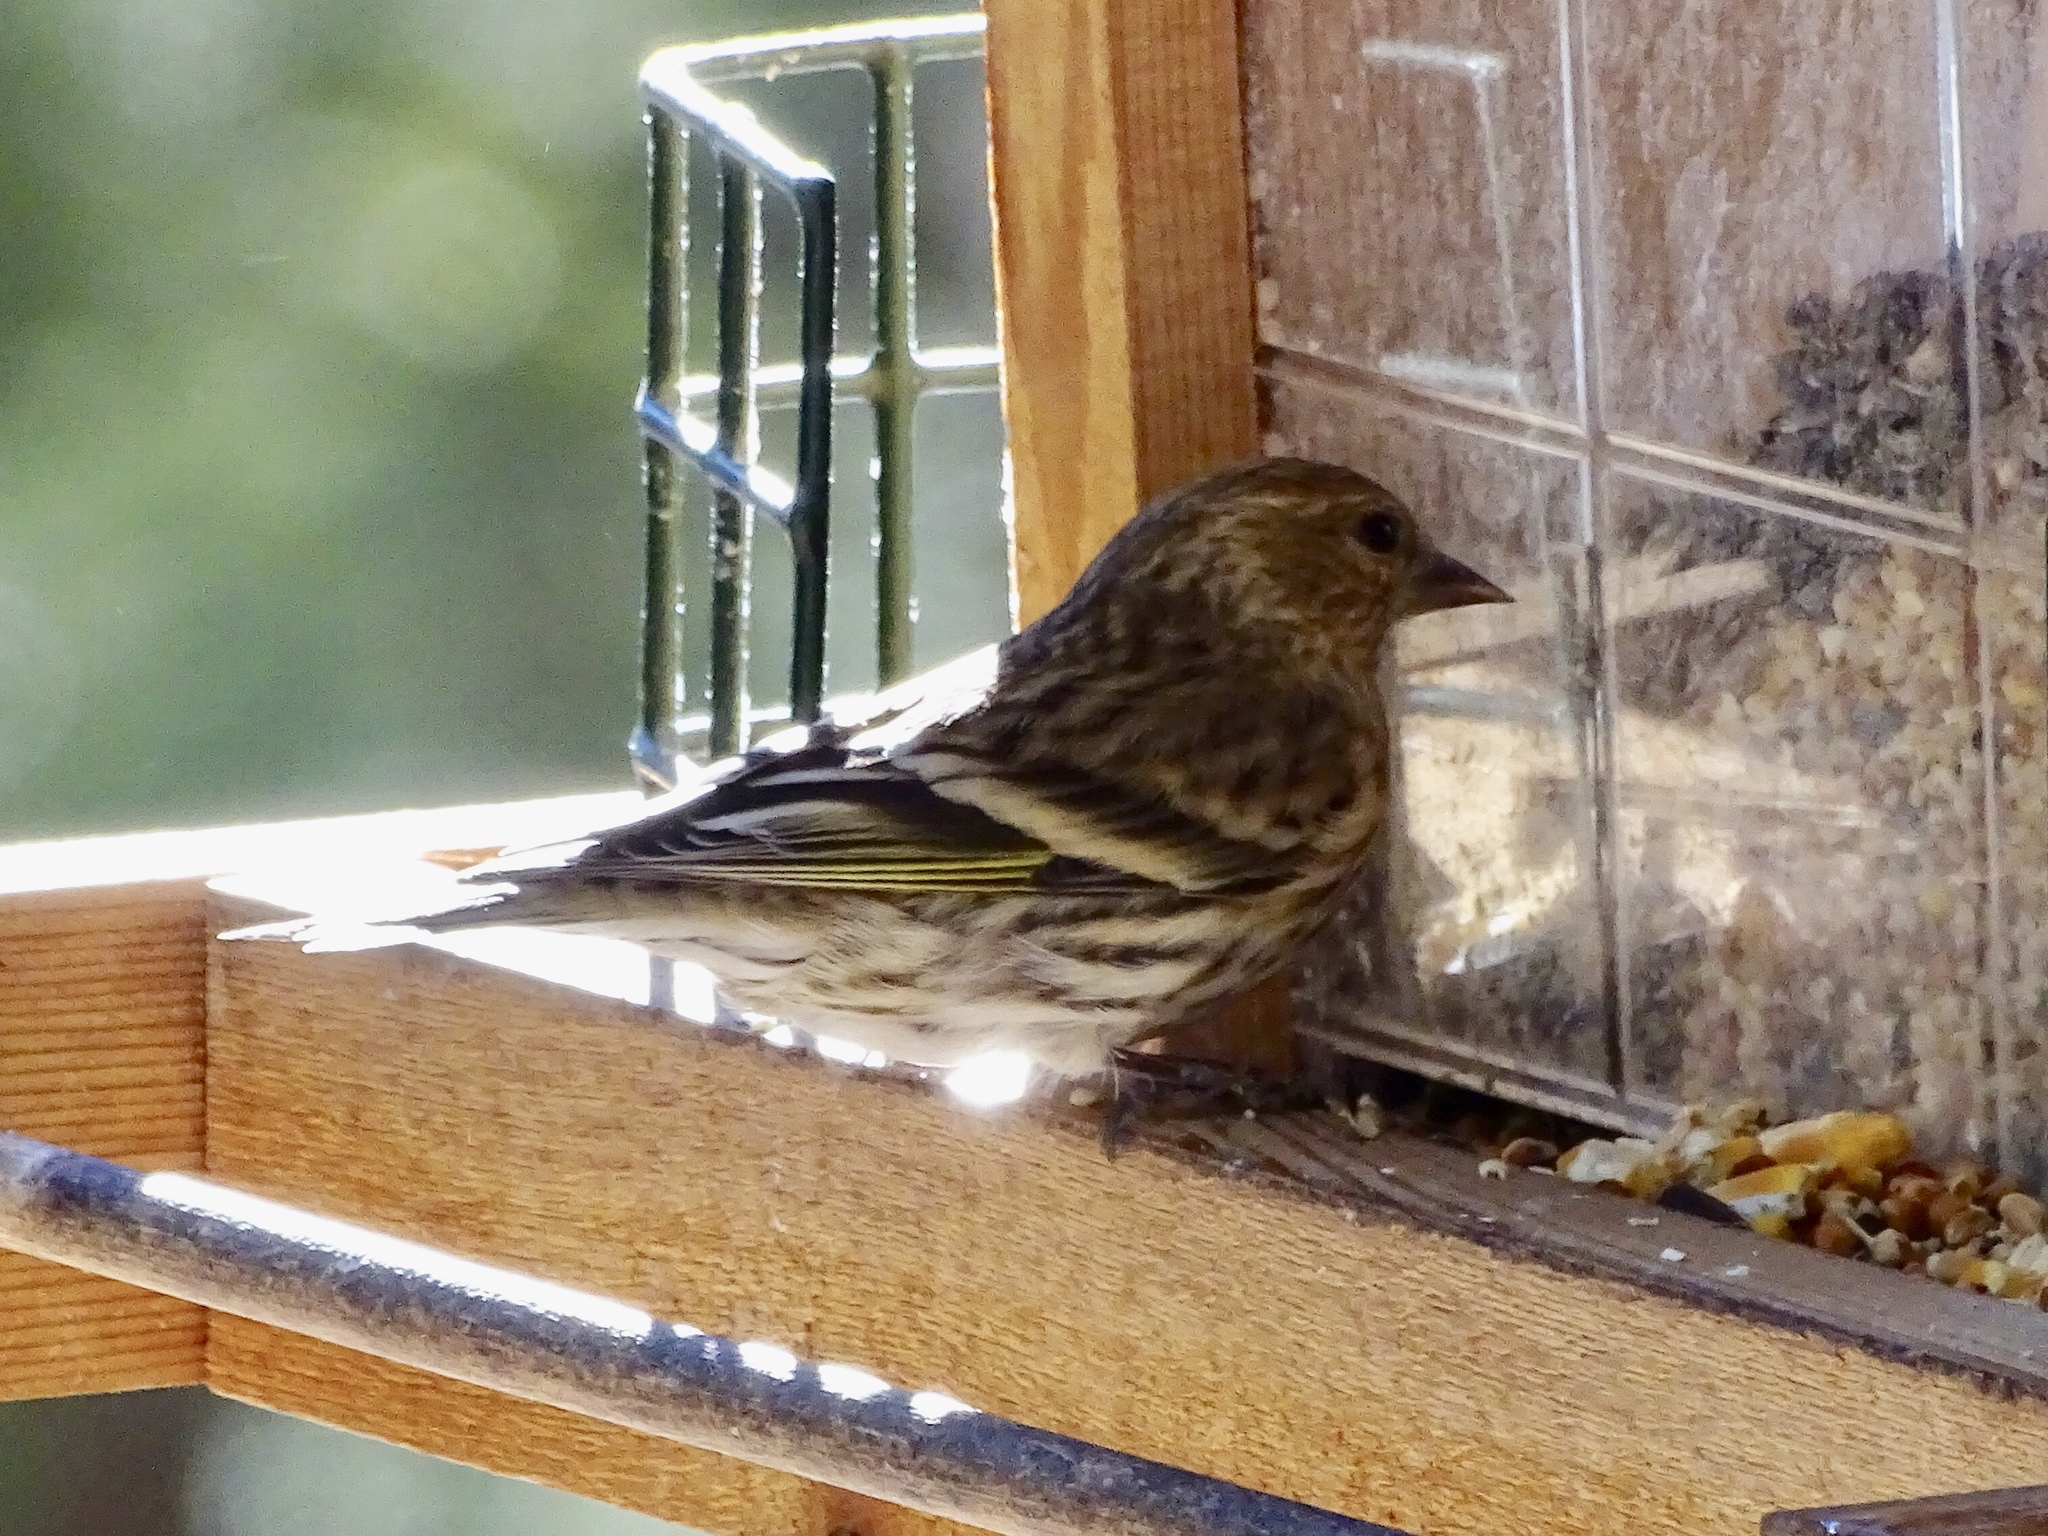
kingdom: Animalia
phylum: Chordata
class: Aves
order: Passeriformes
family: Fringillidae
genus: Spinus
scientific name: Spinus pinus
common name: Pine siskin
